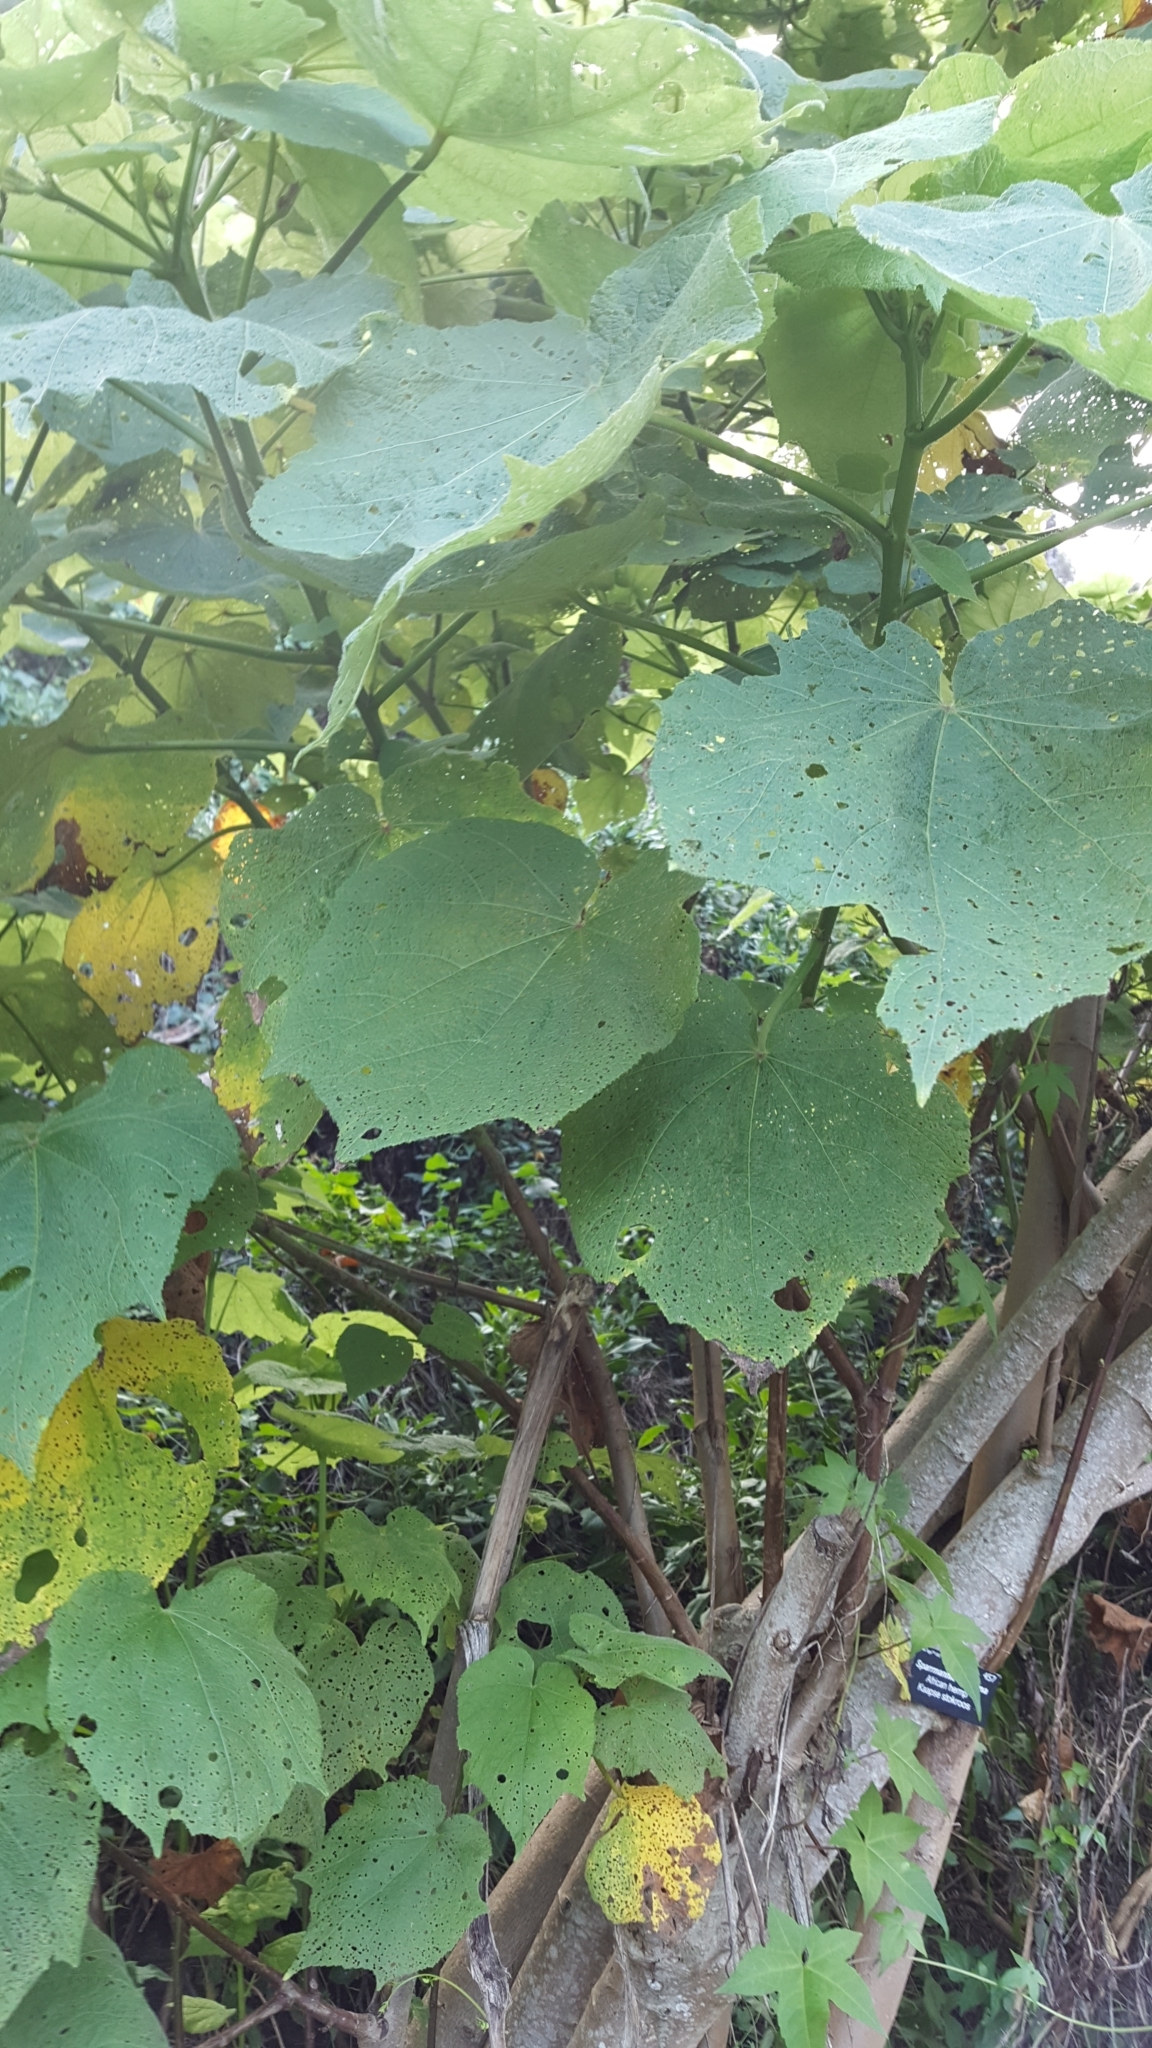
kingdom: Plantae
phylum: Tracheophyta
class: Magnoliopsida
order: Malvales
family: Malvaceae
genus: Sparrmannia
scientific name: Sparrmannia africana
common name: African-hemp
